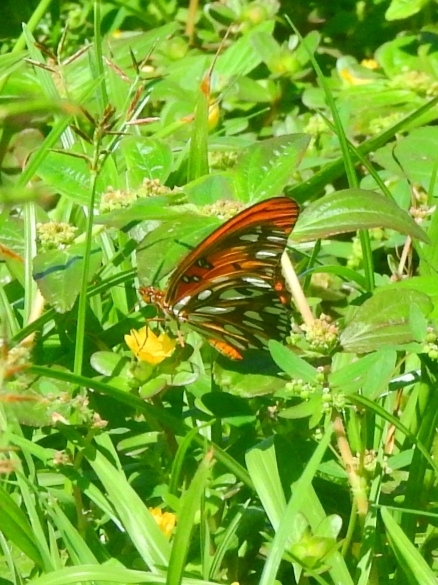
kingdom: Animalia
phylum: Arthropoda
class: Insecta
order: Lepidoptera
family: Nymphalidae
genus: Dione
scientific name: Dione vanillae
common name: Gulf fritillary
